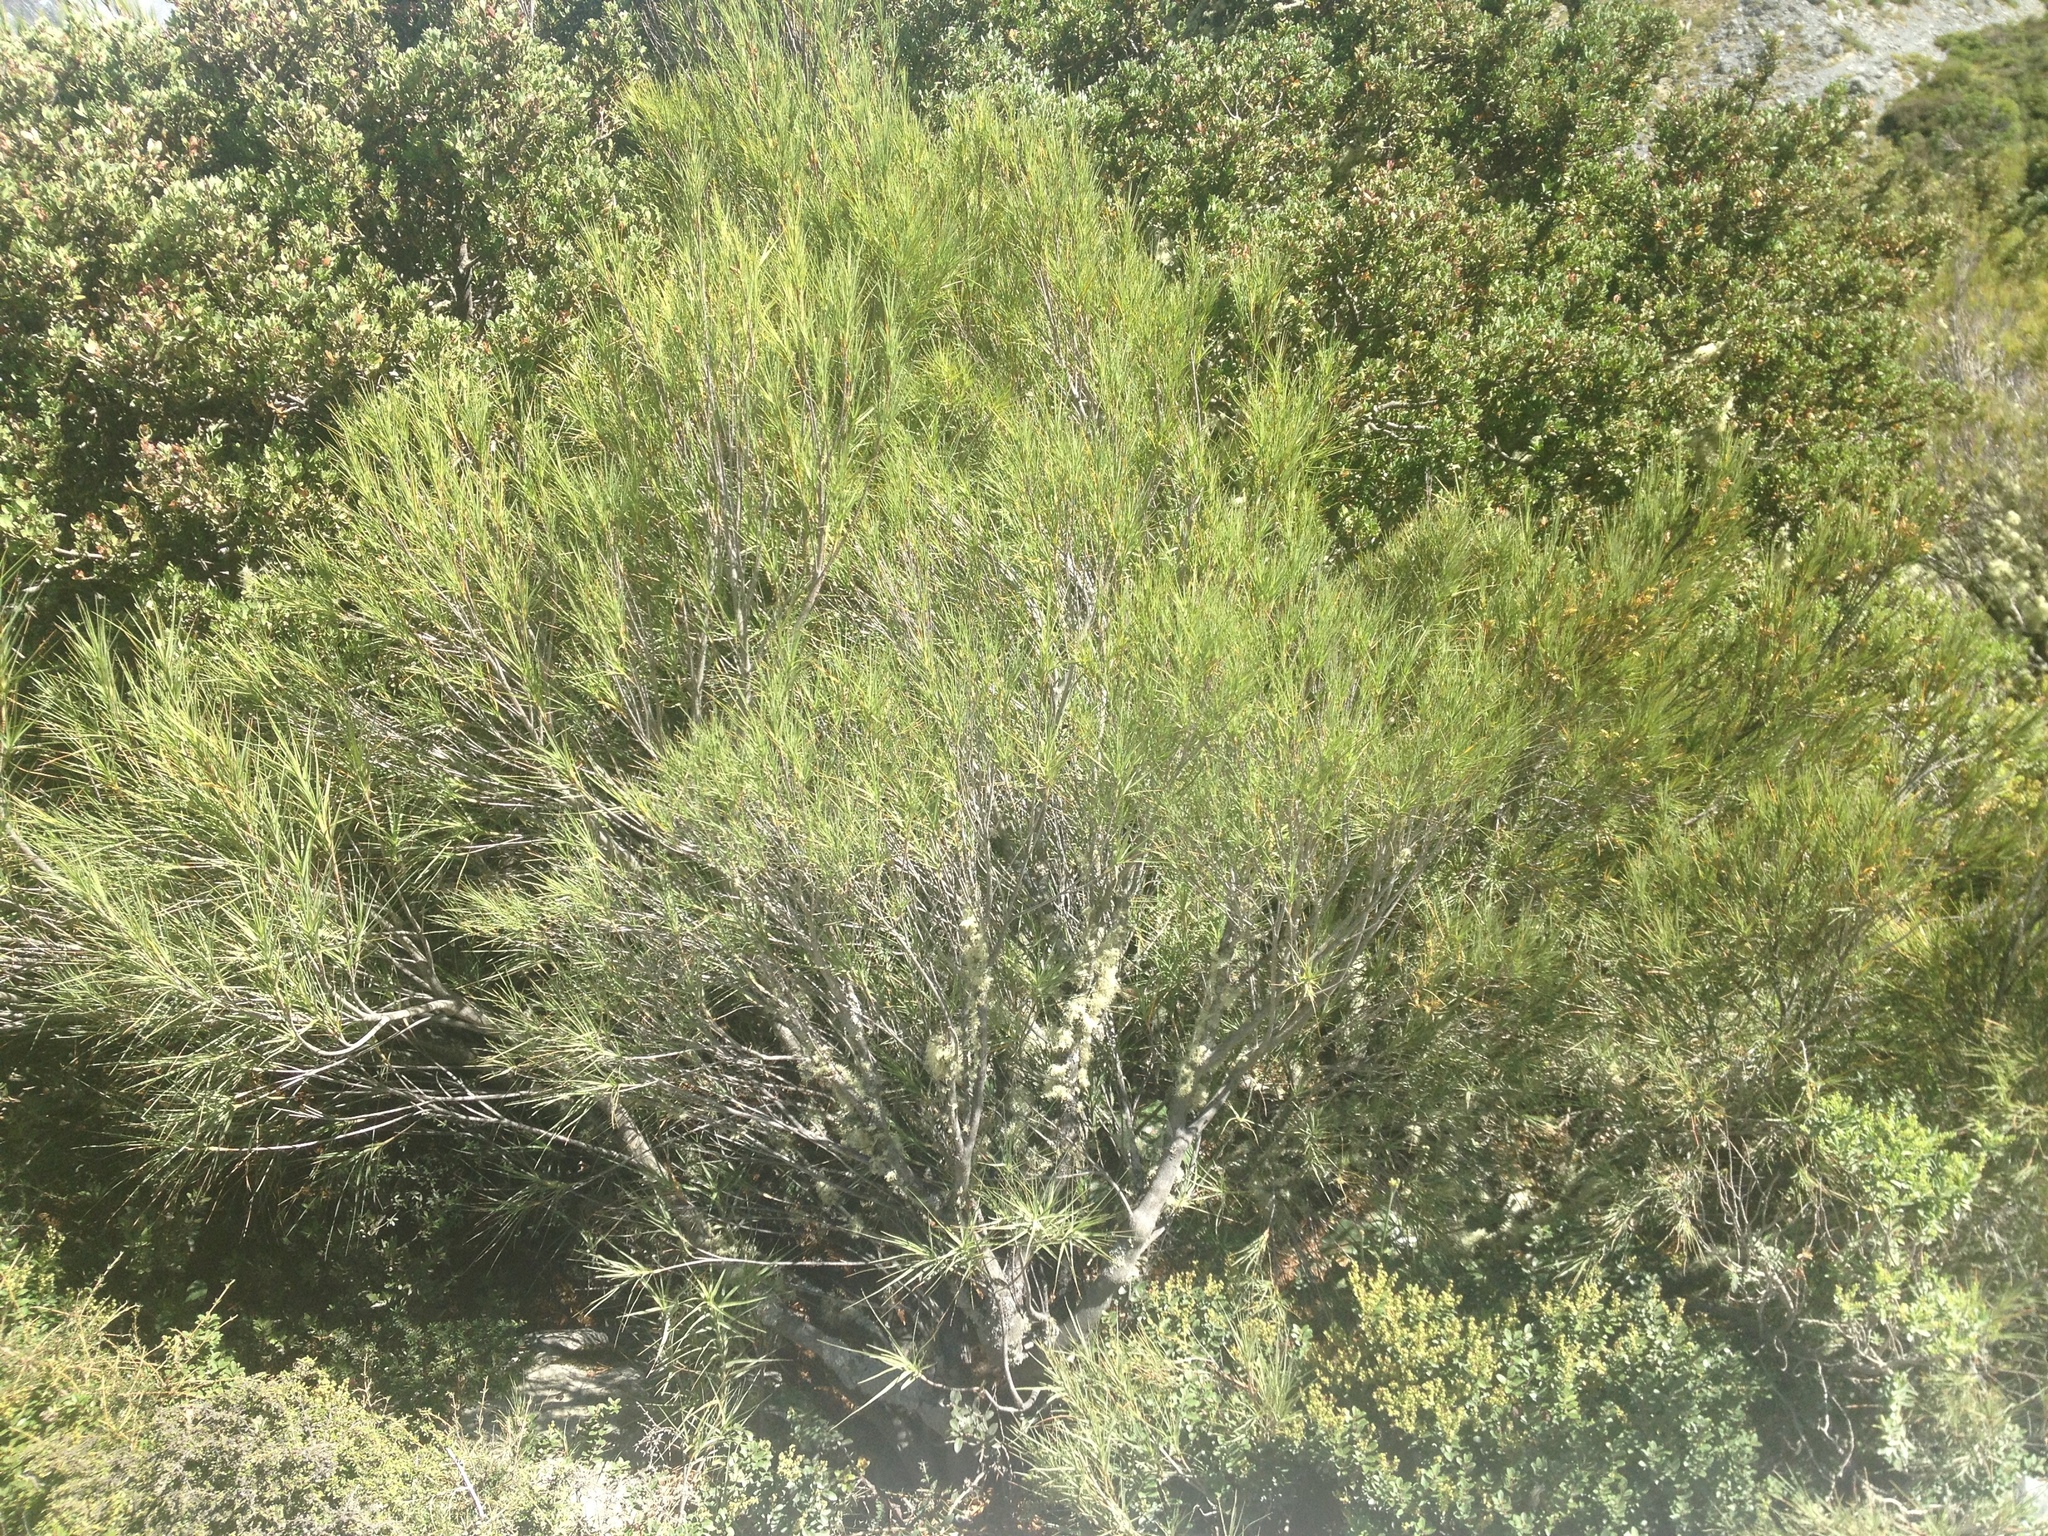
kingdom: Plantae
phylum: Tracheophyta
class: Magnoliopsida
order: Ericales
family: Ericaceae
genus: Dracophyllum
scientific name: Dracophyllum longifolium
